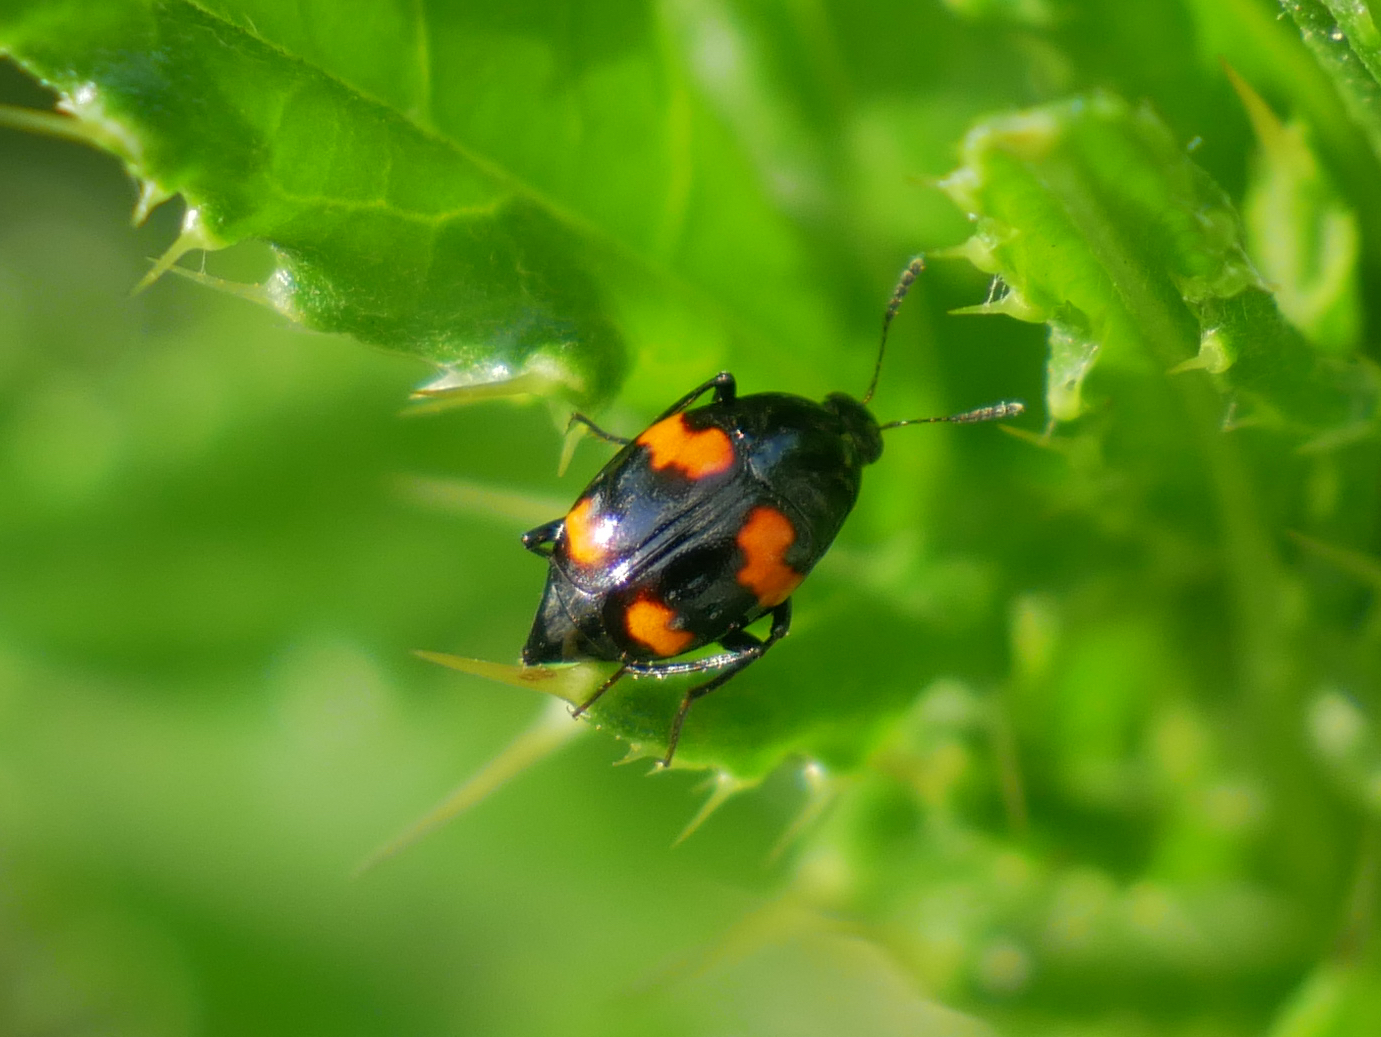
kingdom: Animalia
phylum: Arthropoda
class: Insecta
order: Coleoptera
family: Staphylinidae
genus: Scaphidium
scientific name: Scaphidium quadrimaculatum
